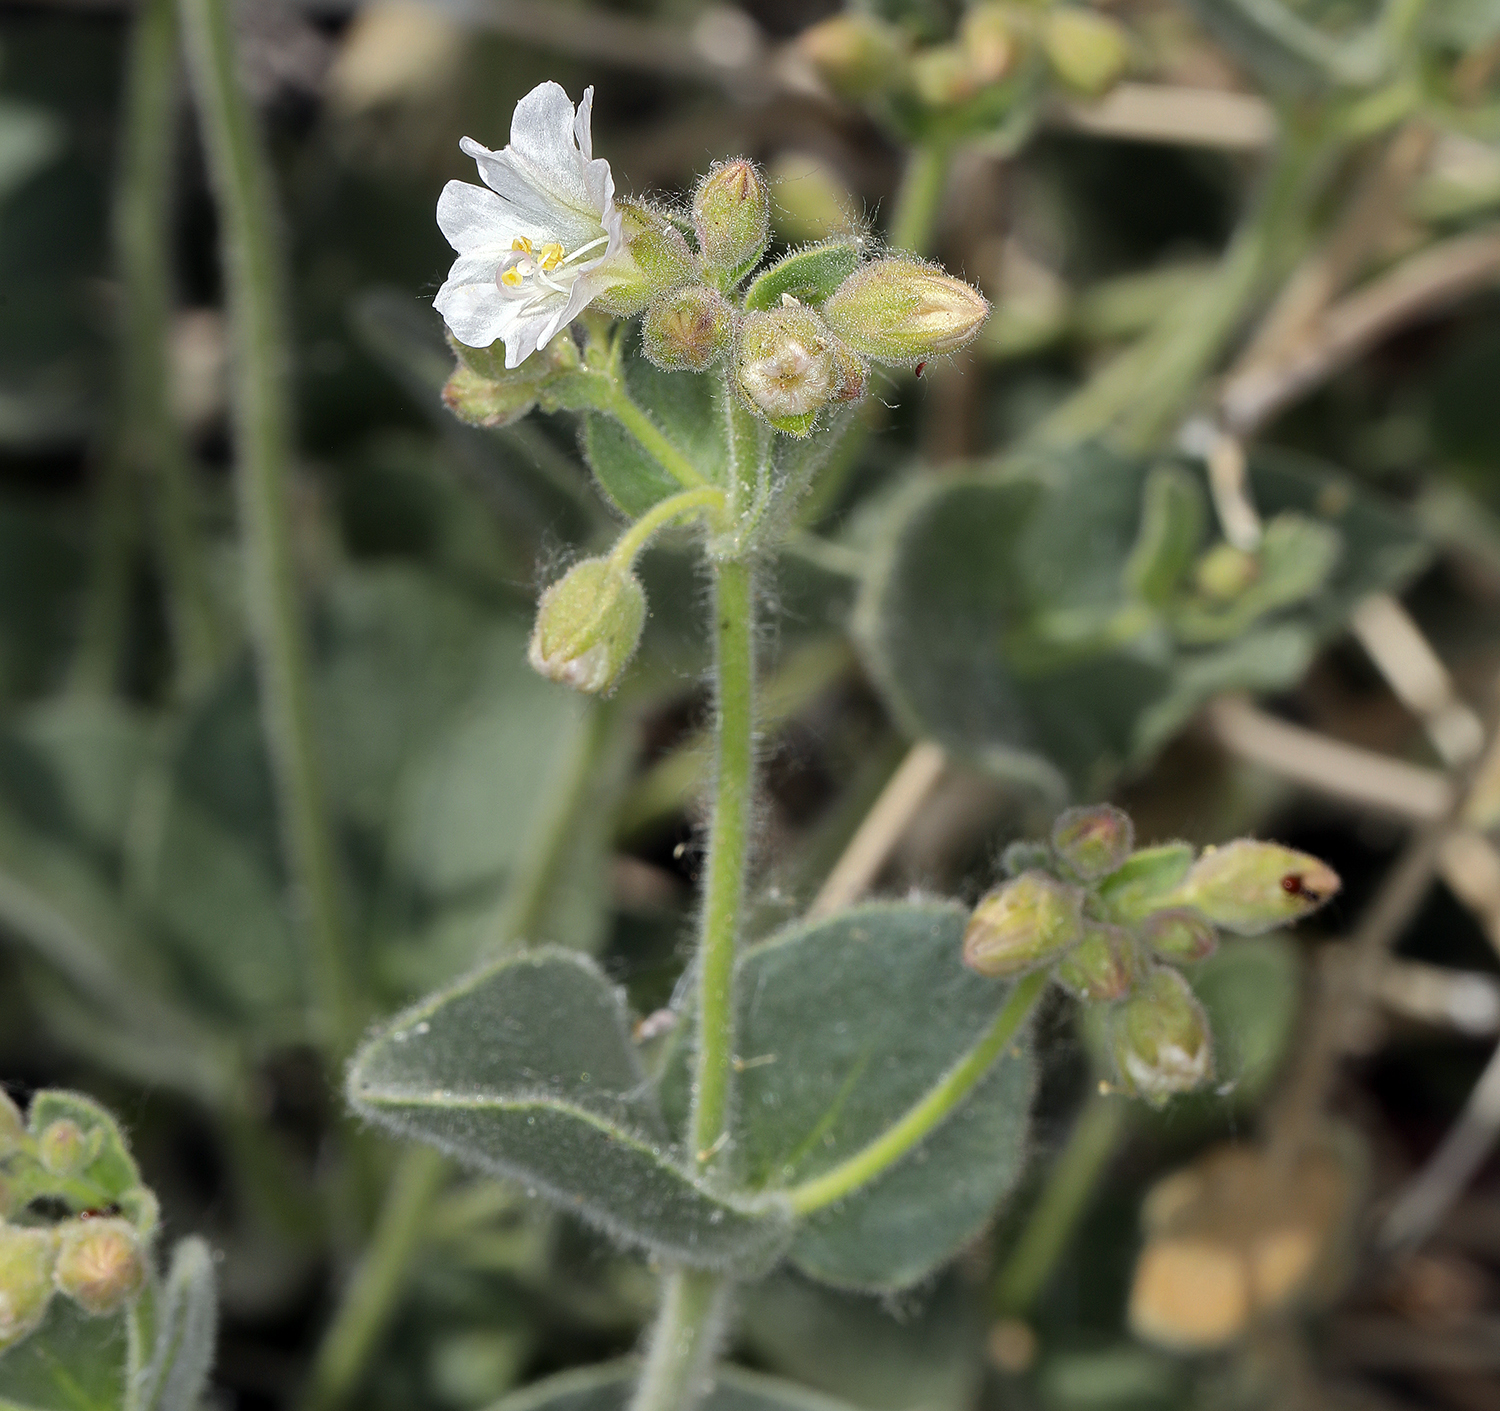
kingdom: Plantae
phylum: Tracheophyta
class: Magnoliopsida
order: Caryophyllales
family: Nyctaginaceae
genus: Mirabilis
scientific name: Mirabilis laevis
